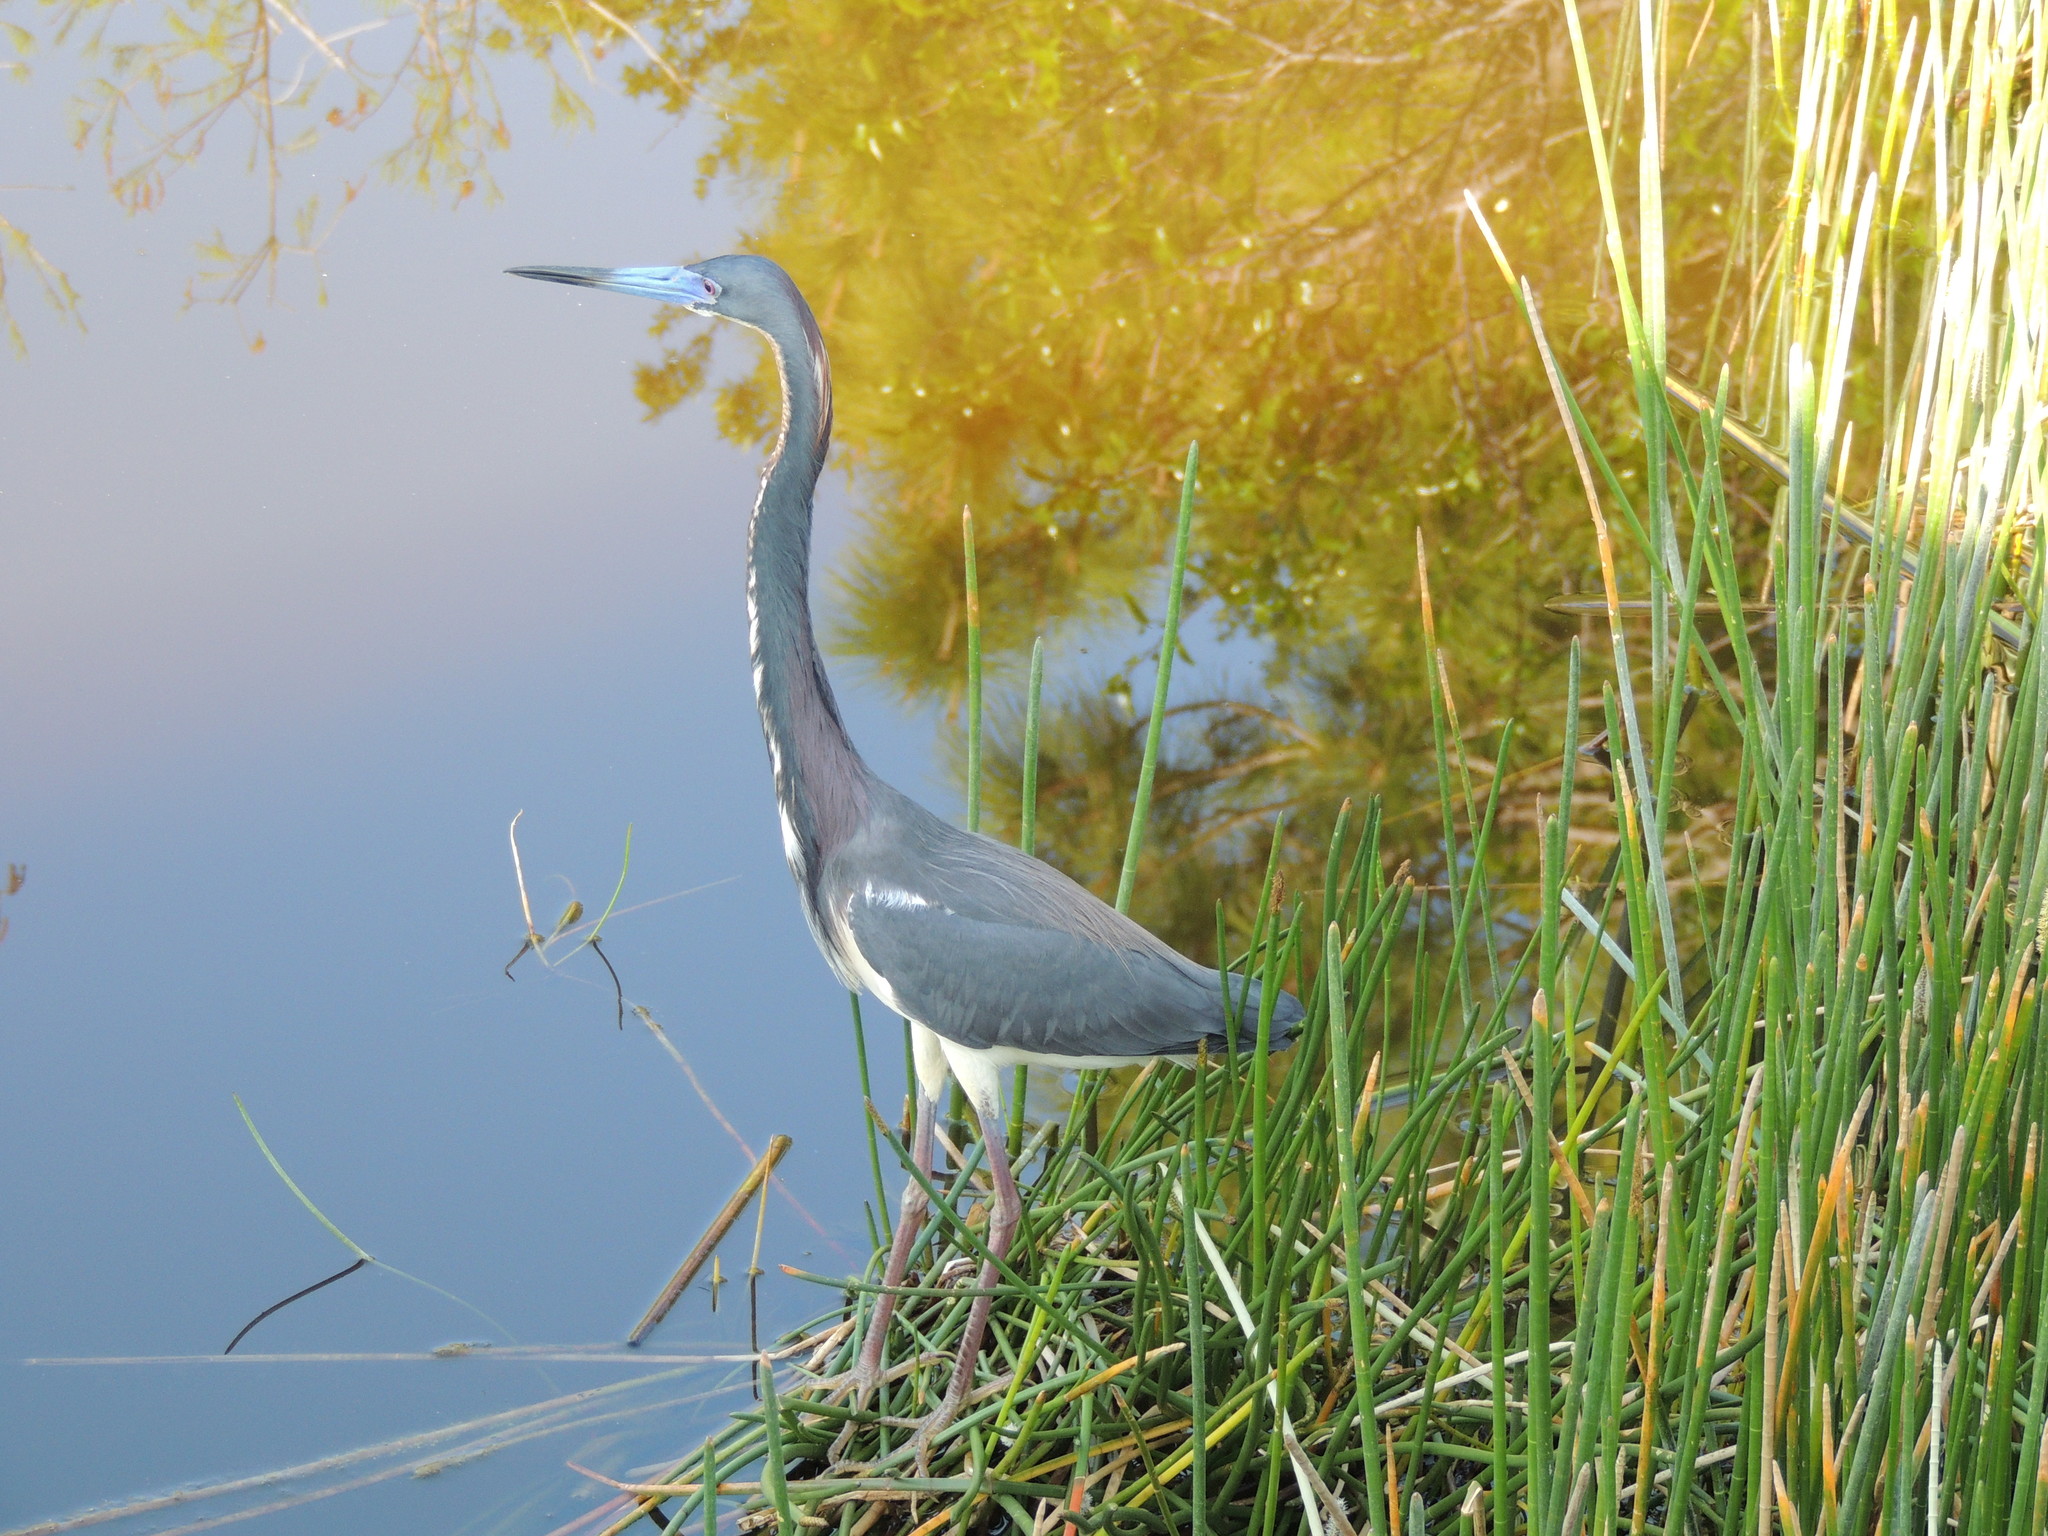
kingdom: Animalia
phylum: Chordata
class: Aves
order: Pelecaniformes
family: Ardeidae
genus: Egretta
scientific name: Egretta tricolor
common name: Tricolored heron
